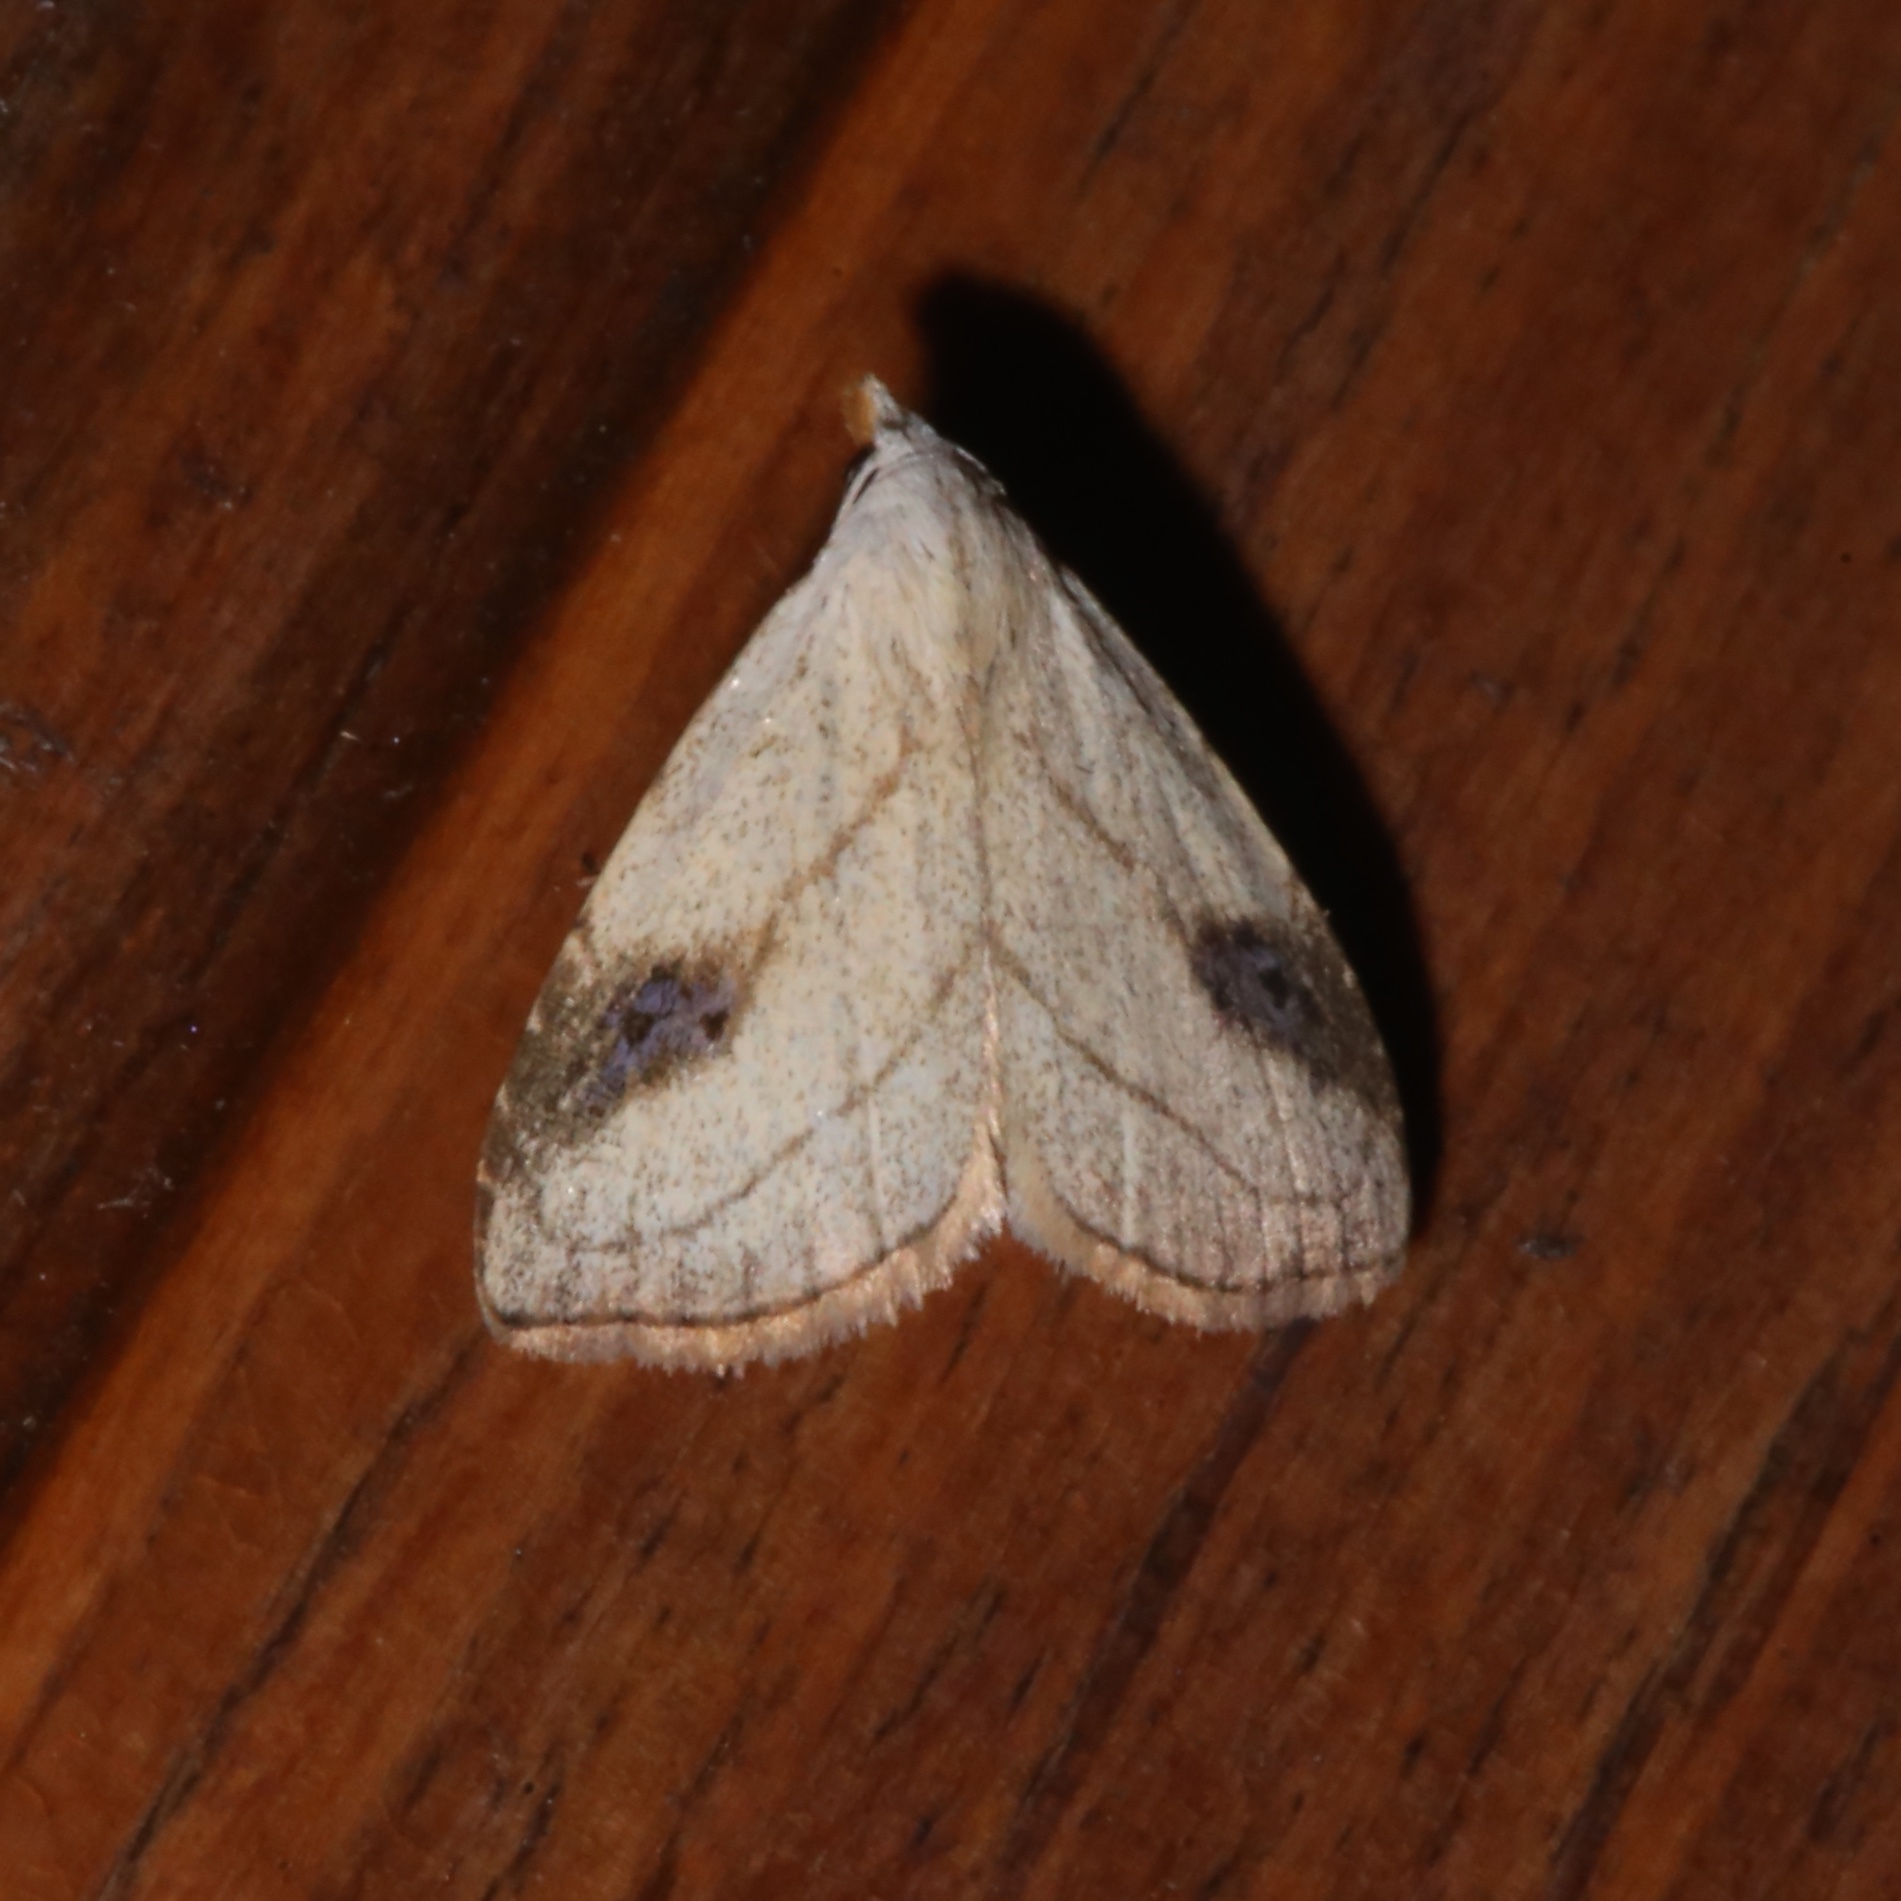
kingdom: Animalia
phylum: Arthropoda
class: Insecta
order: Lepidoptera
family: Erebidae
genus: Rivula
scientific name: Rivula propinqualis
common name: Spotted grass moth
